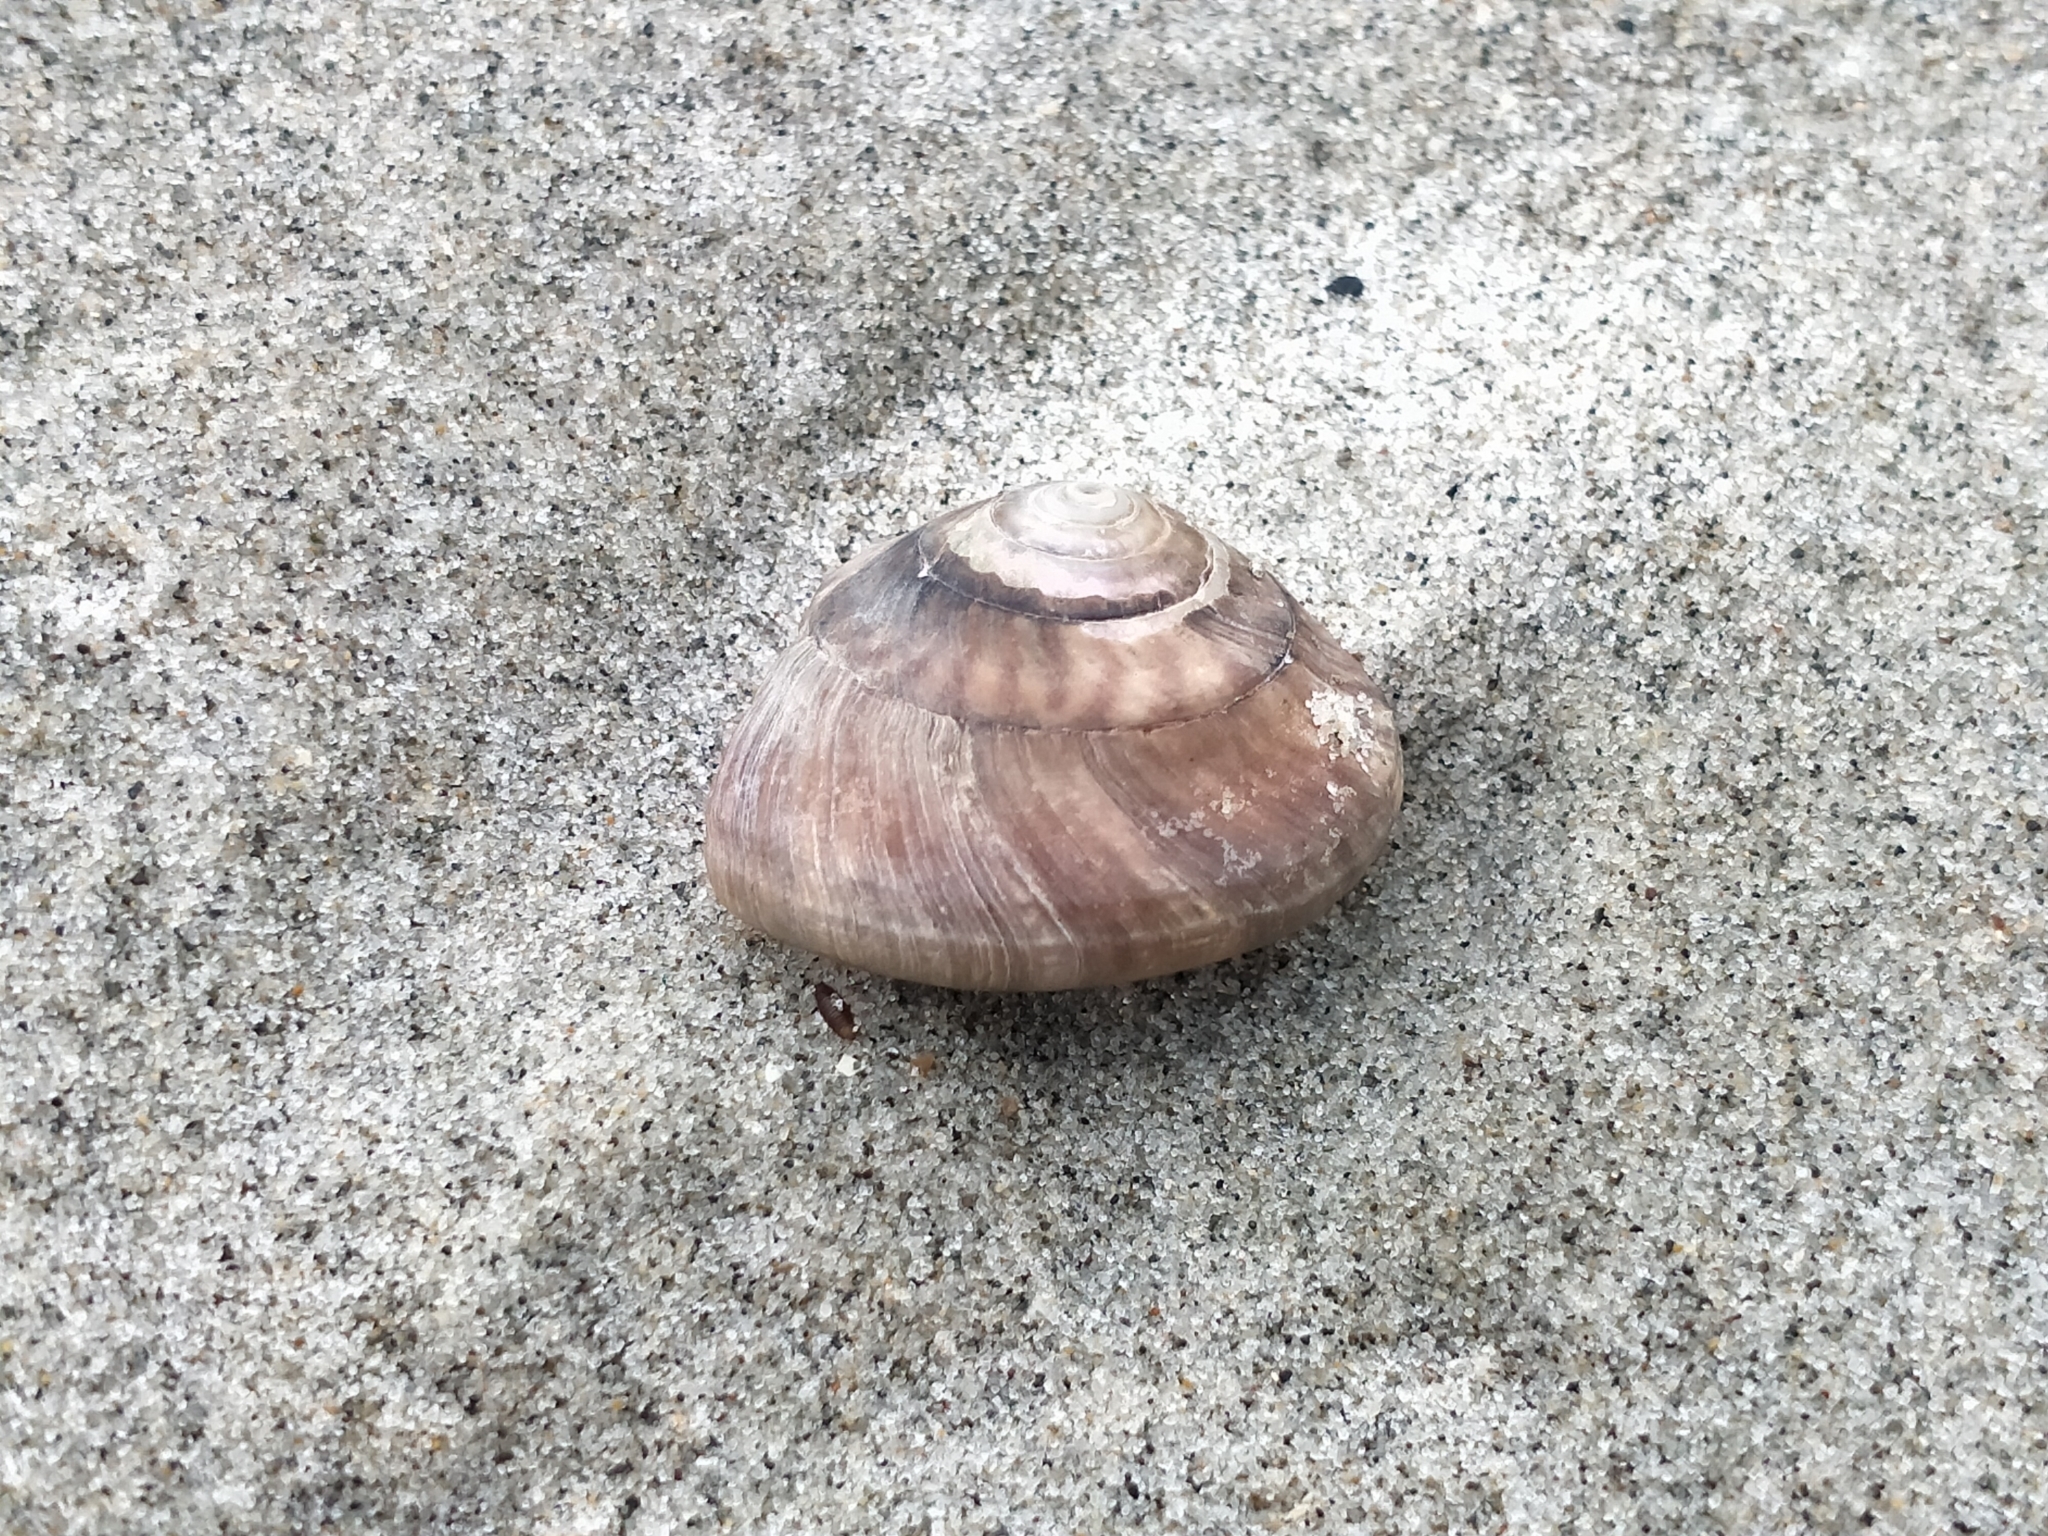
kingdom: Animalia
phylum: Mollusca
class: Gastropoda
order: Trochida
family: Trochidae
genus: Zethalia
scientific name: Zethalia zelandica
